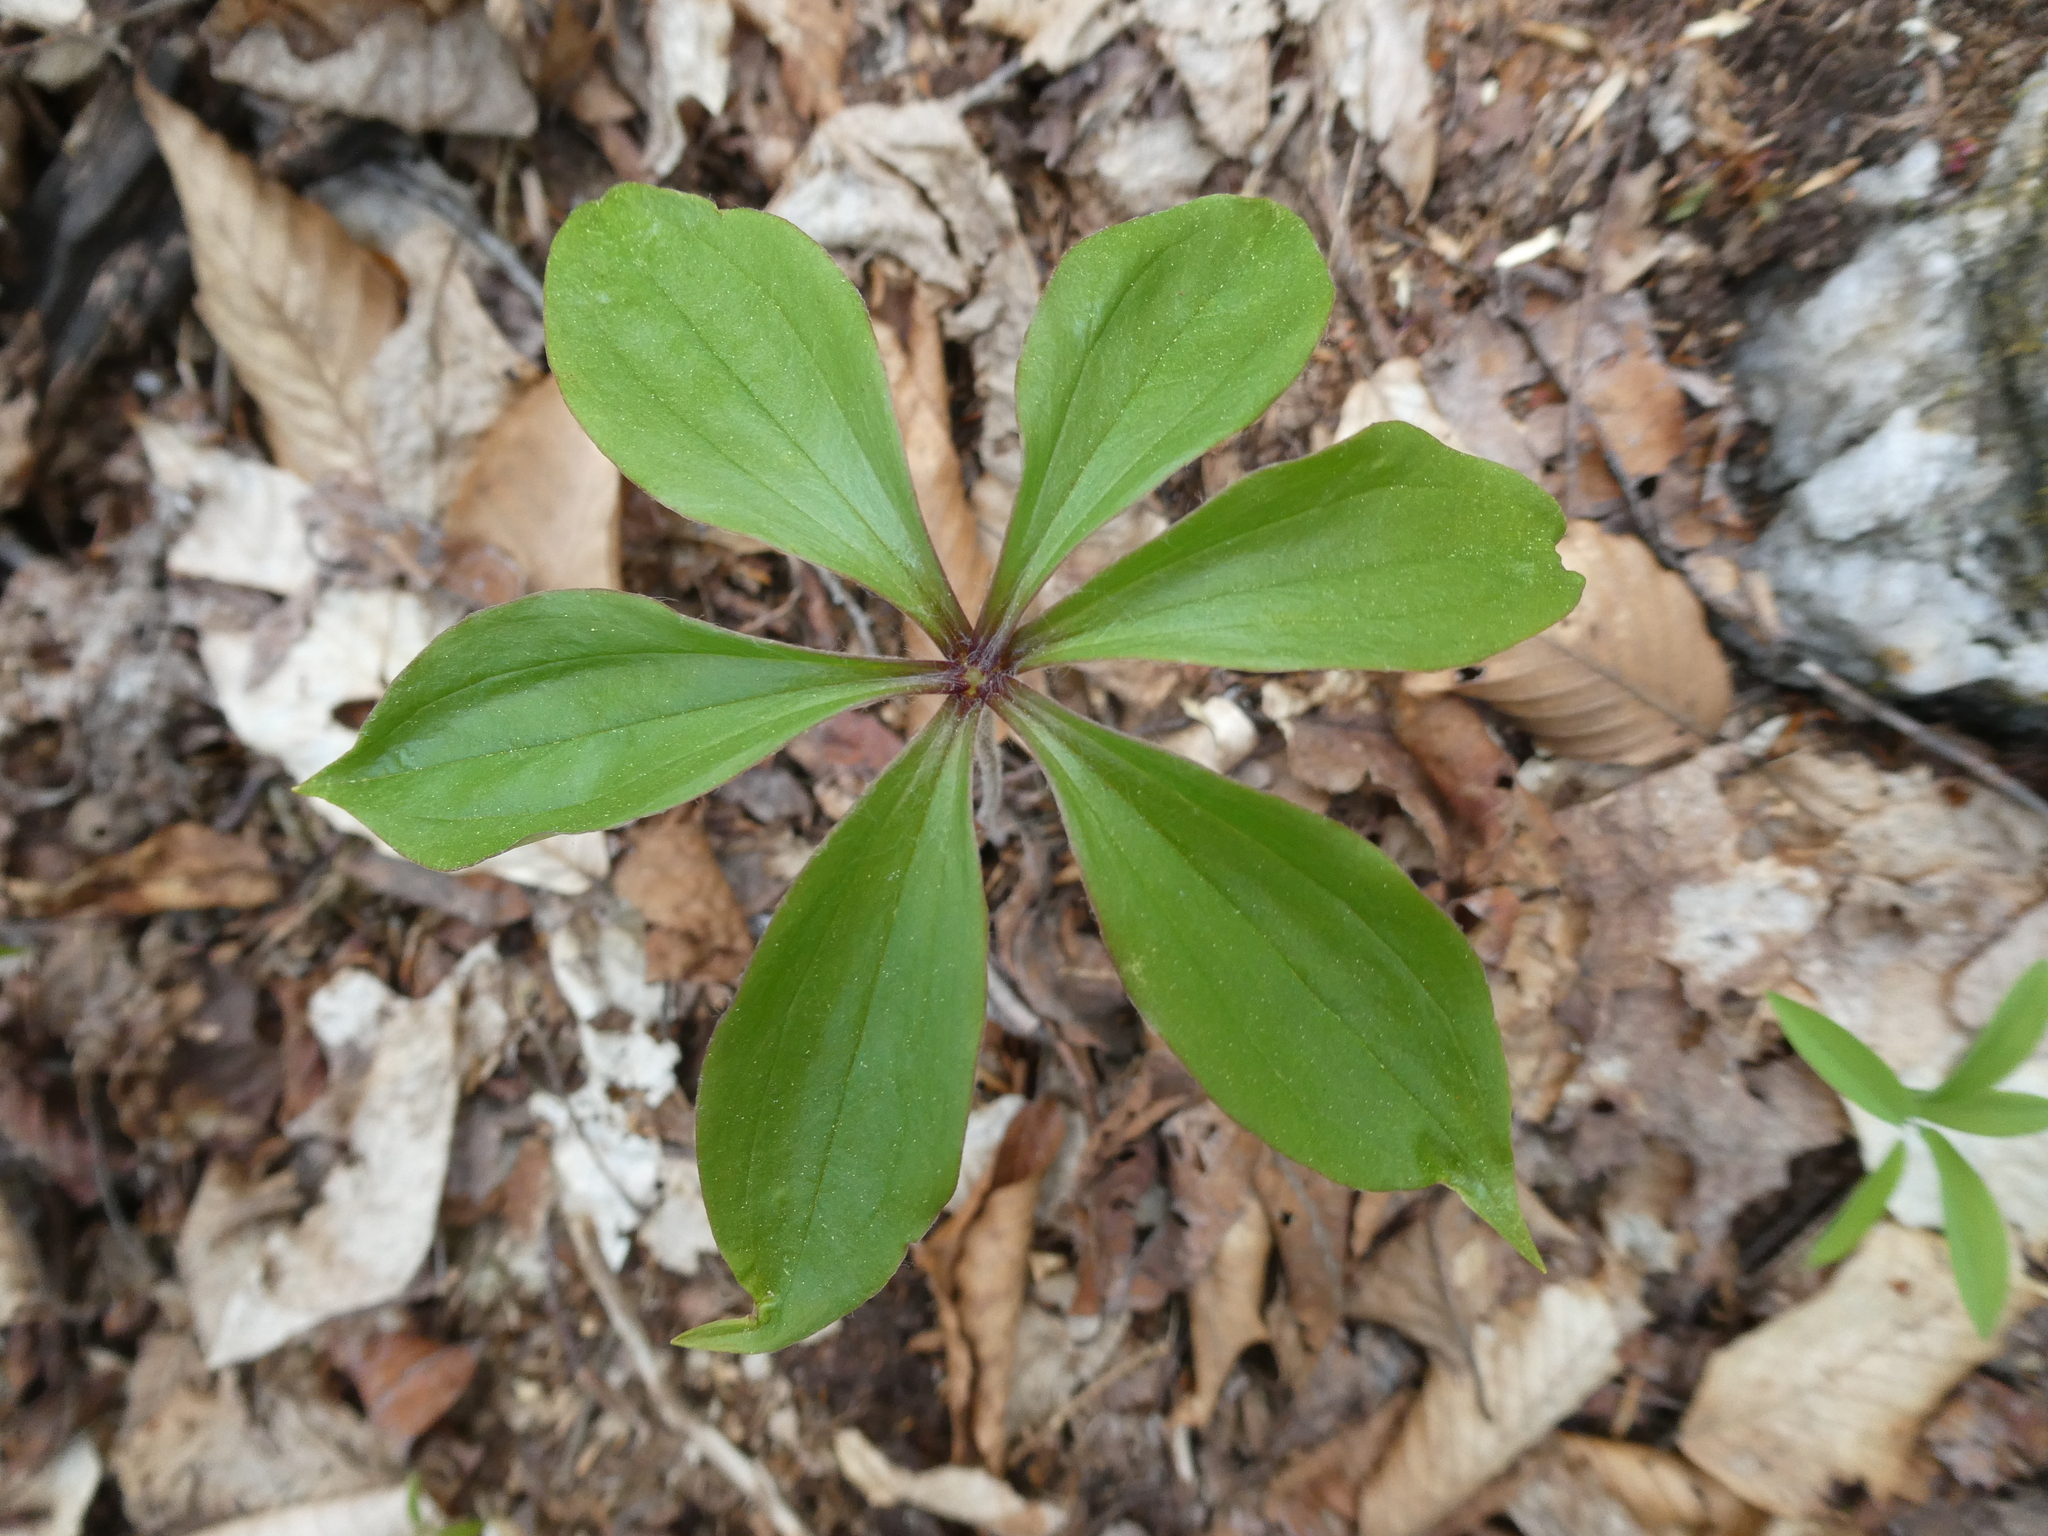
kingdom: Plantae
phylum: Tracheophyta
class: Liliopsida
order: Liliales
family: Liliaceae
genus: Medeola
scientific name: Medeola virginiana
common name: Indian cucumber-root
